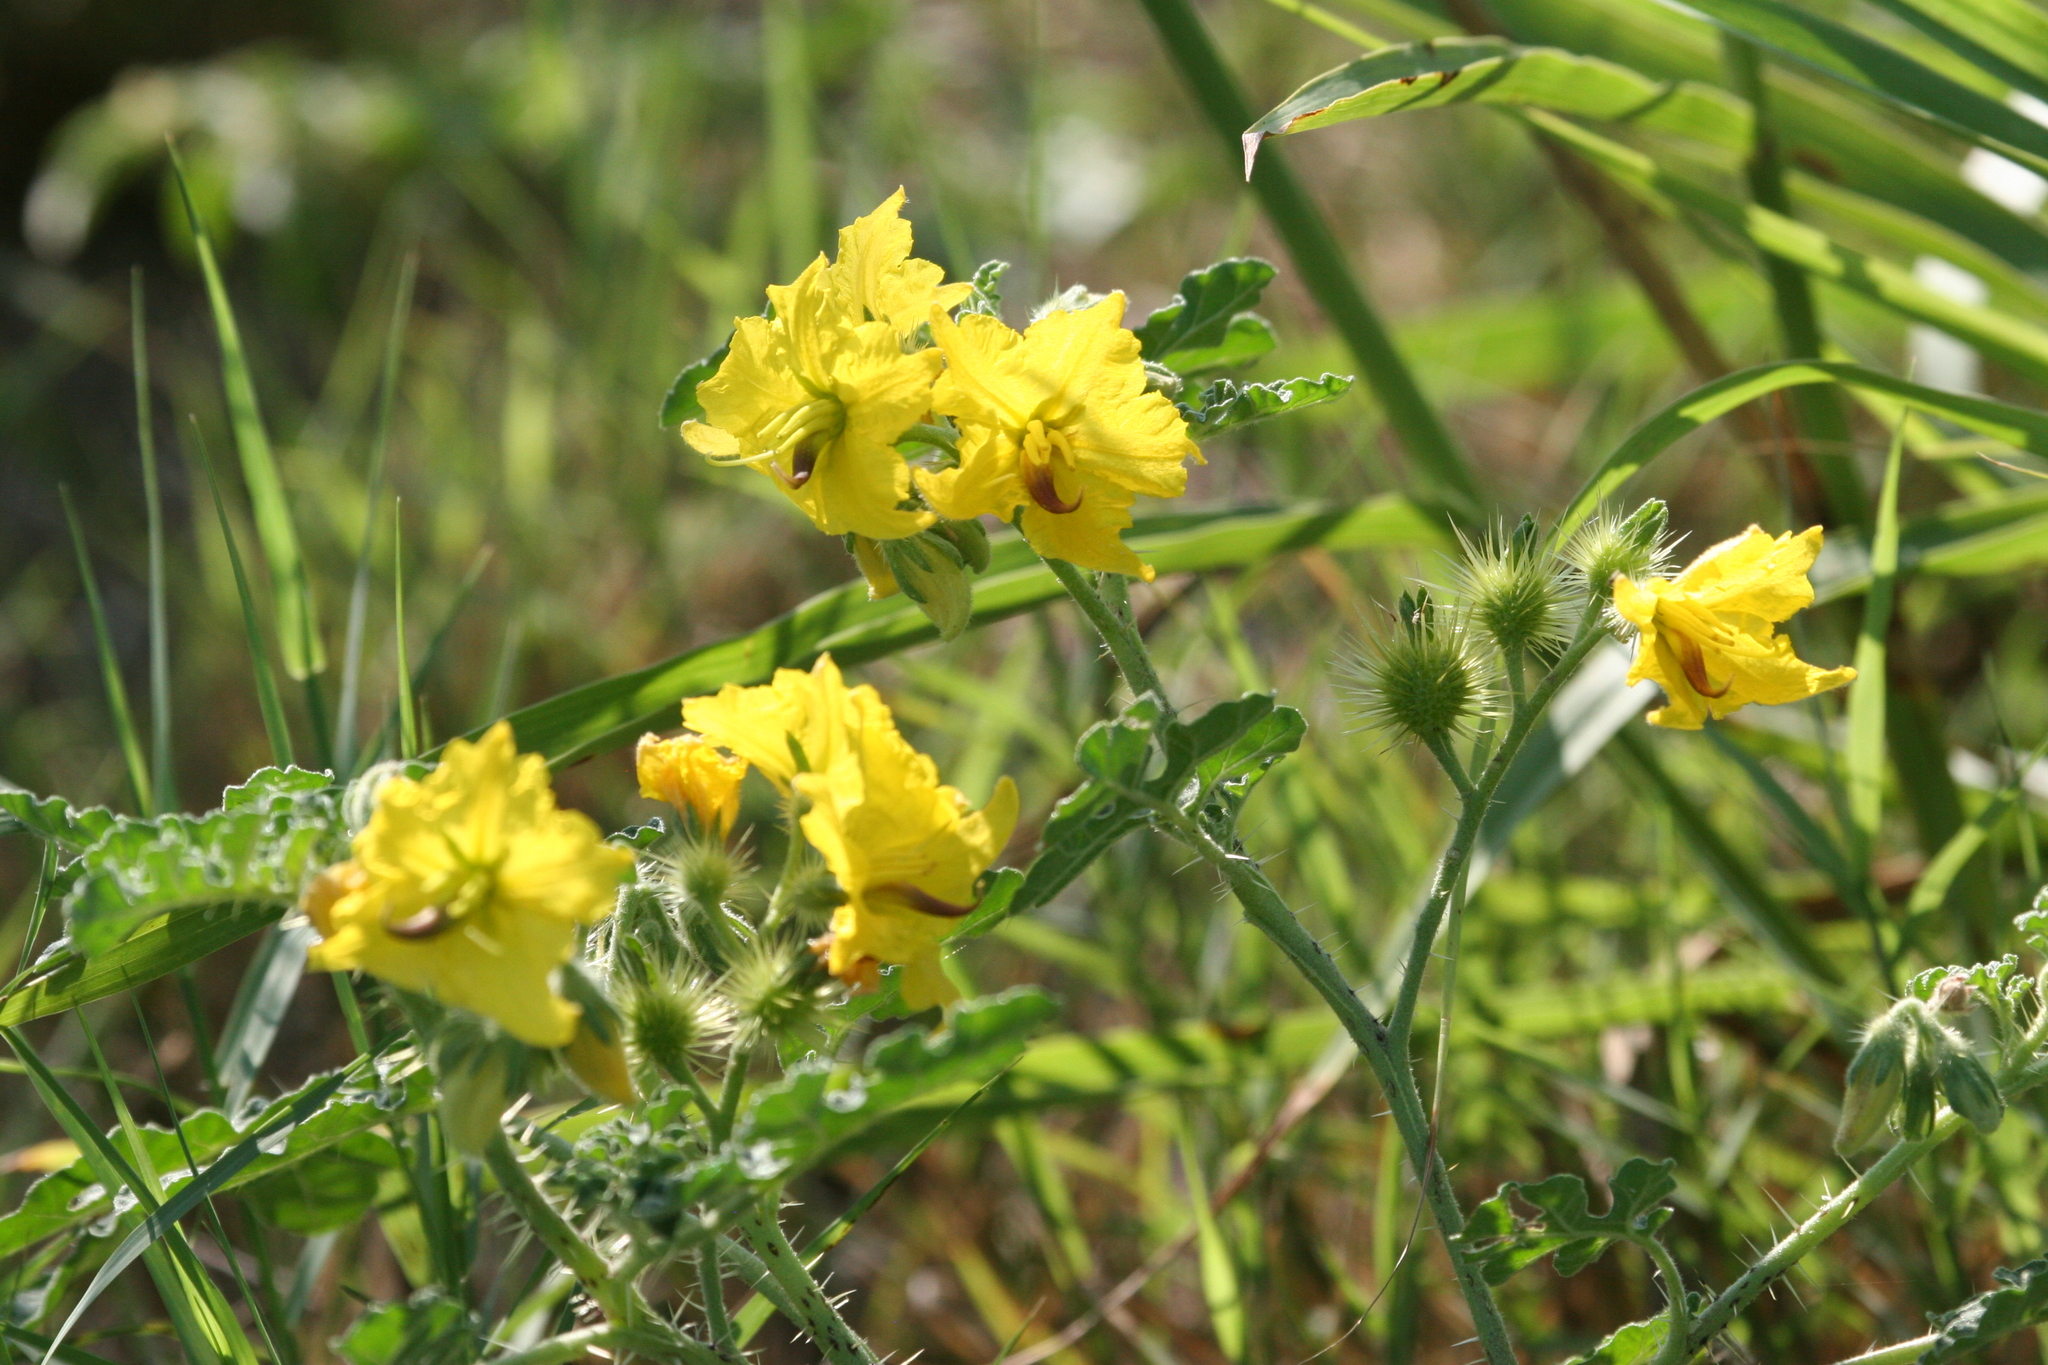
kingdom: Plantae
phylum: Tracheophyta
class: Magnoliopsida
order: Solanales
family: Solanaceae
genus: Solanum
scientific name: Solanum angustifolium
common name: Buffalobur nightshade
